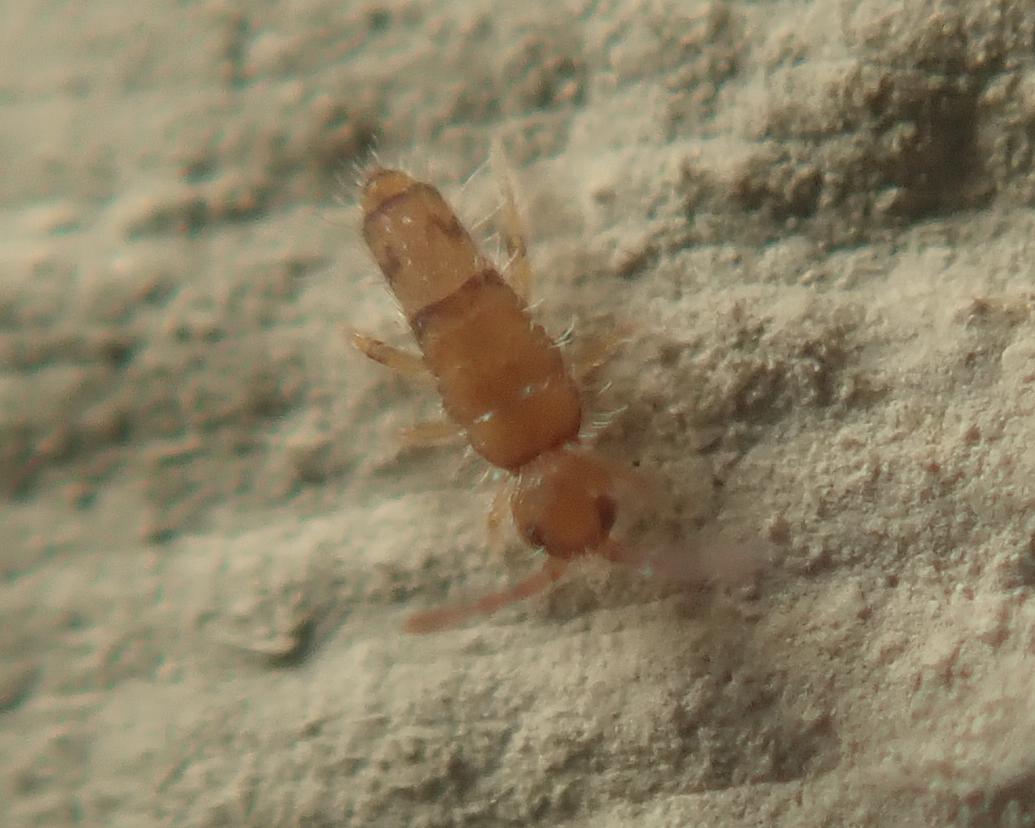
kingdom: Animalia
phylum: Arthropoda
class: Collembola
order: Entomobryomorpha
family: Entomobryidae
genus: Willowsia
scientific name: Willowsia nigromaculata
